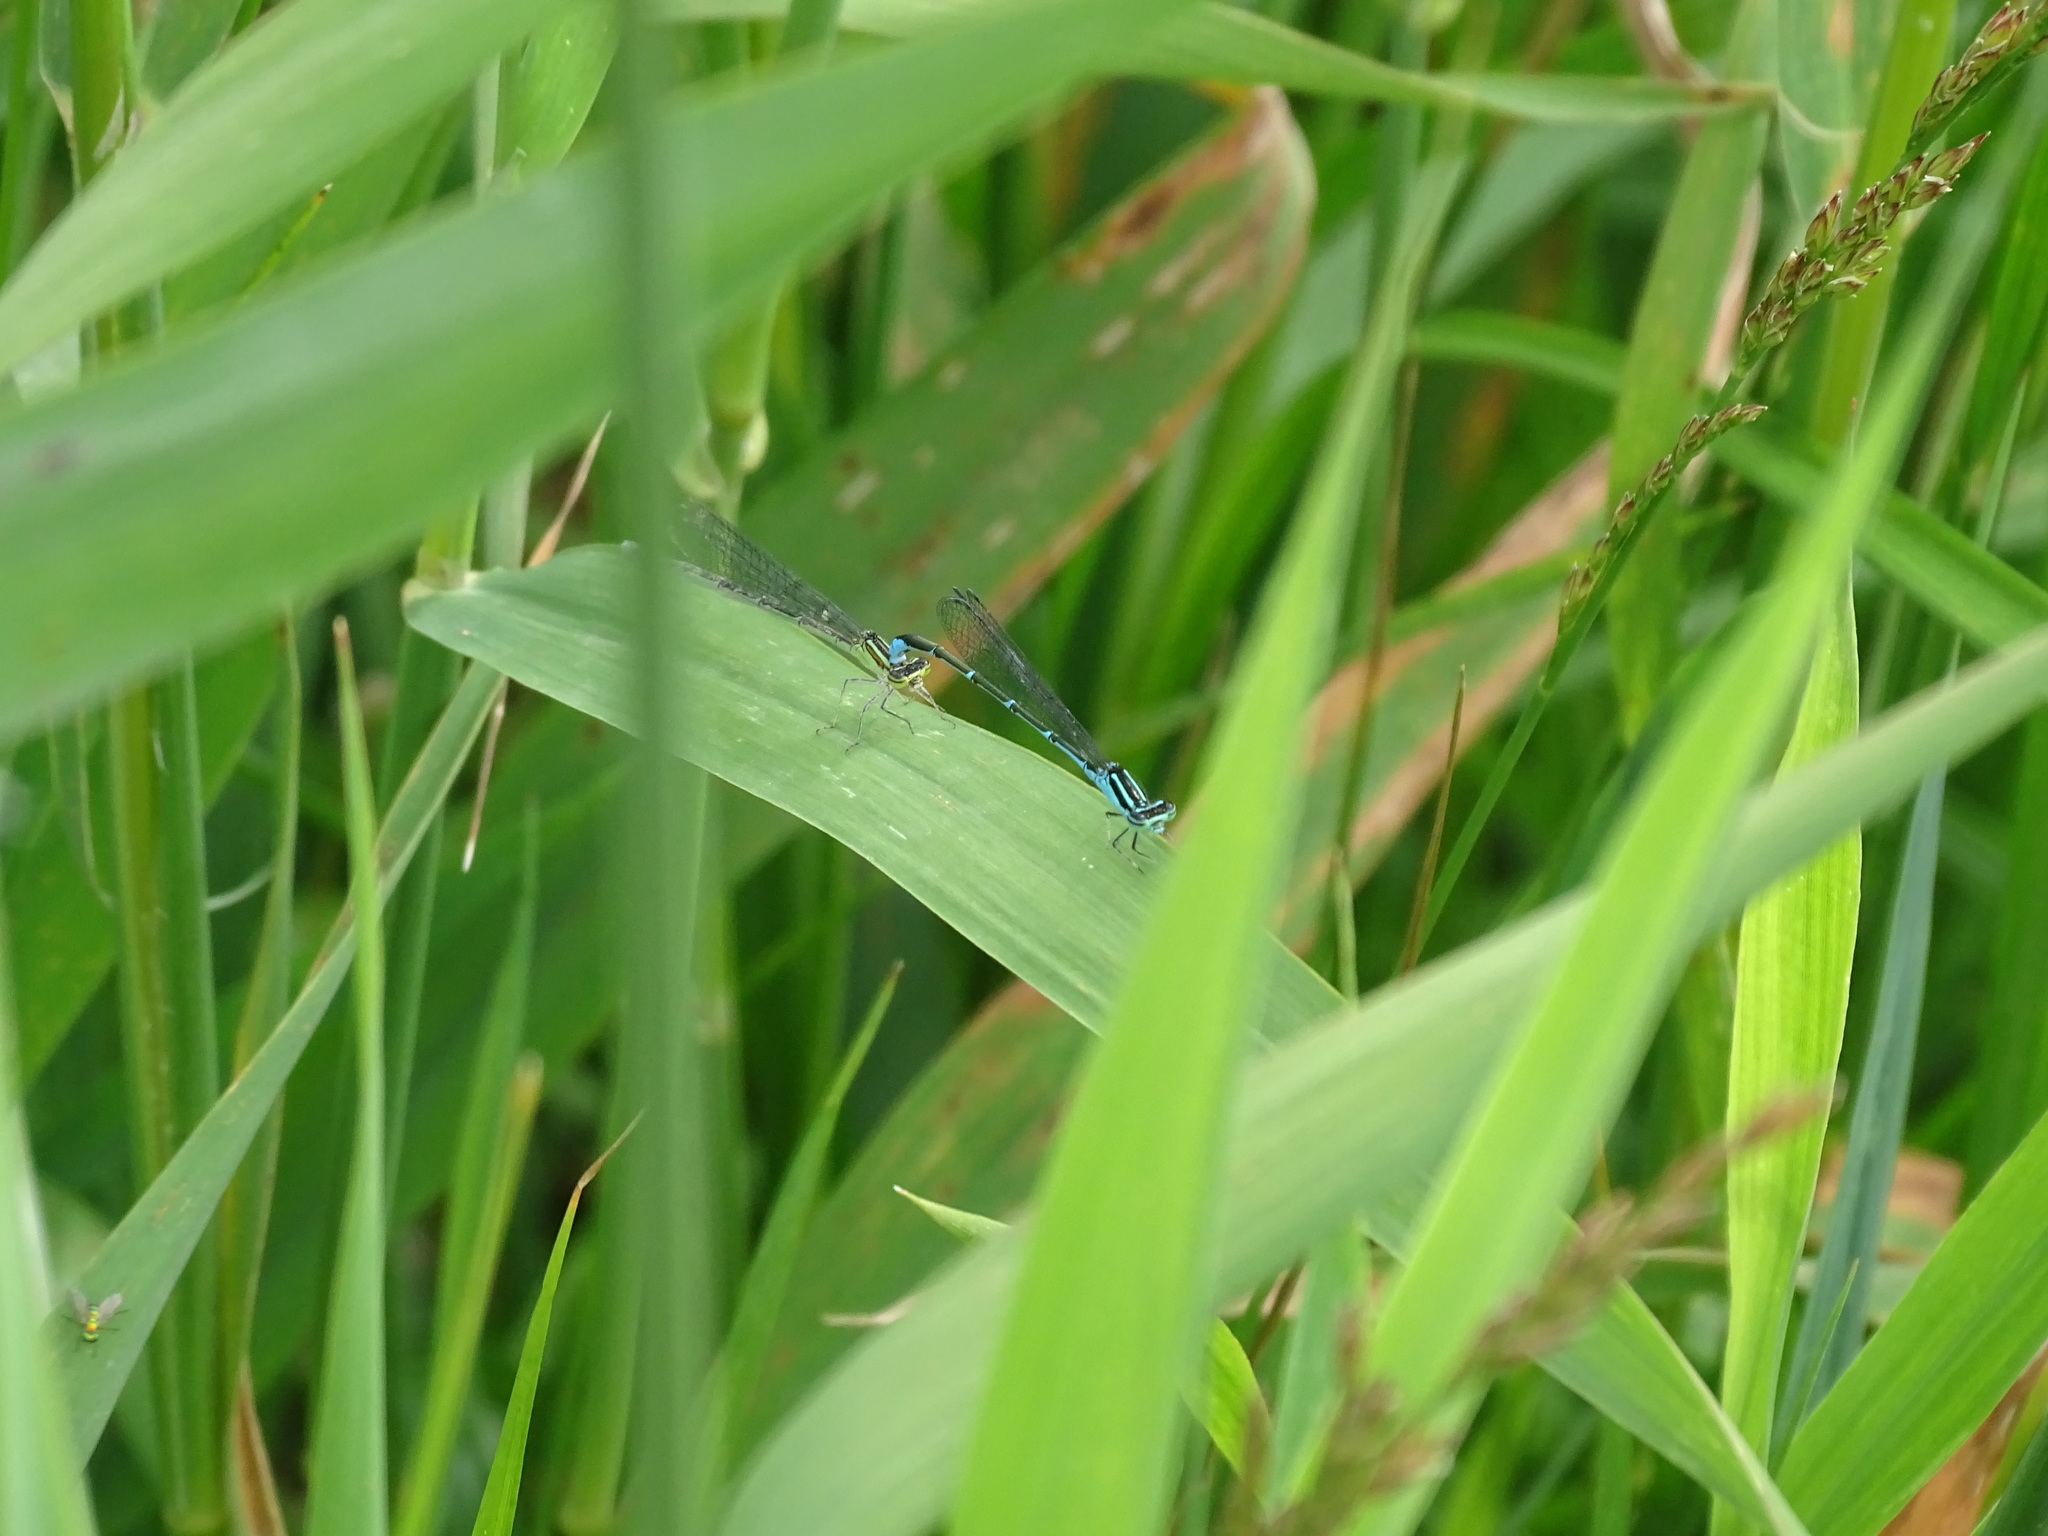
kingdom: Animalia
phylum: Arthropoda
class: Insecta
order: Odonata
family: Coenagrionidae
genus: Enallagma
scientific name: Enallagma exsulans
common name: Stream bluet
